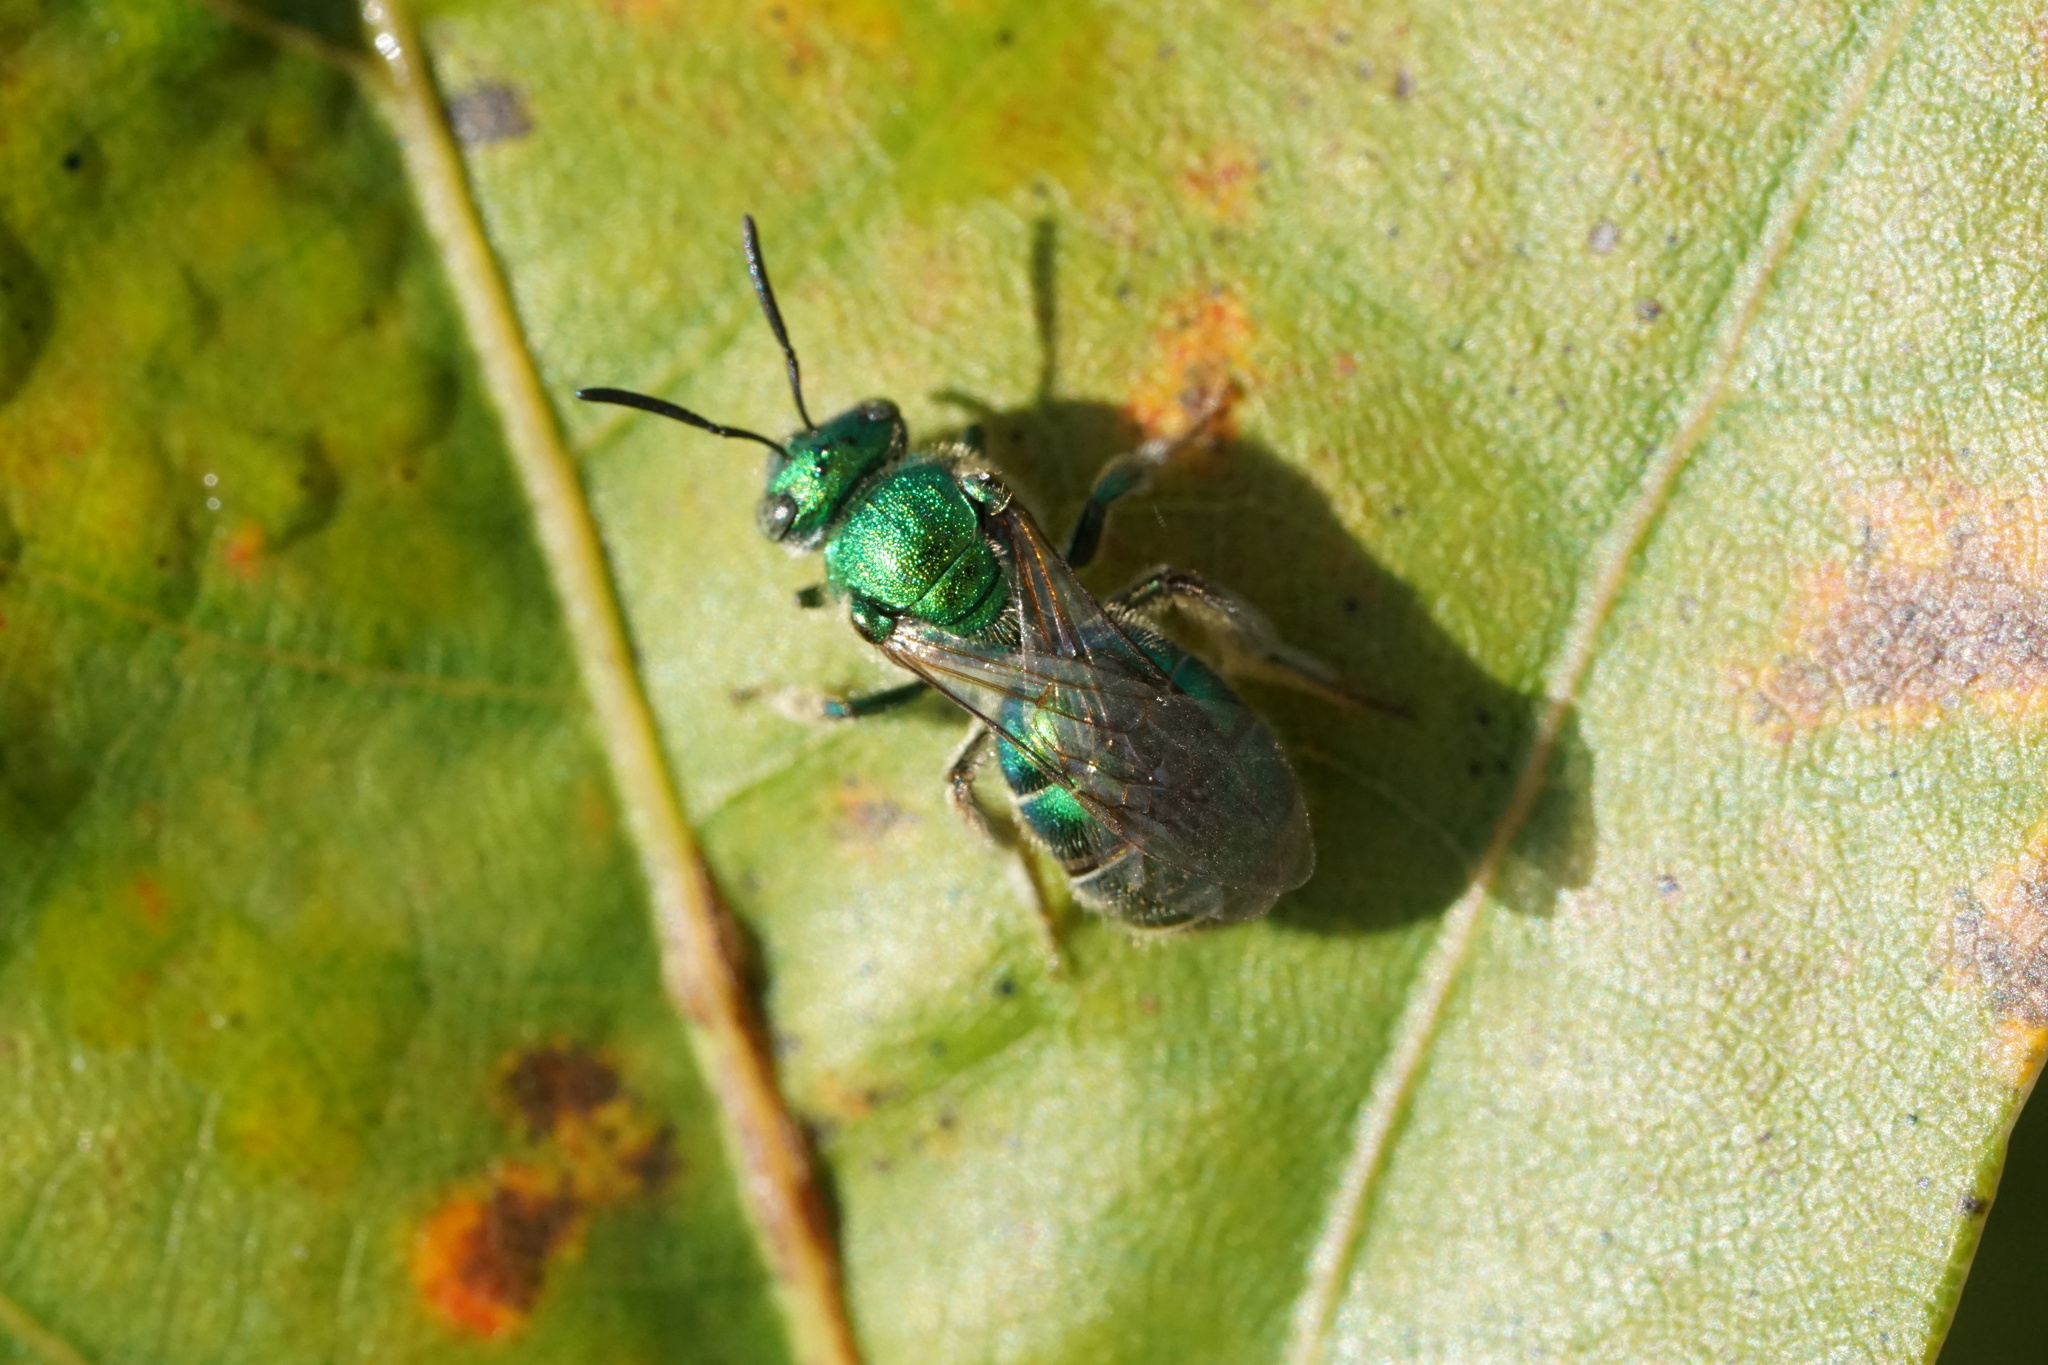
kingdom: Animalia
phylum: Arthropoda
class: Insecta
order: Hymenoptera
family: Halictidae
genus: Augochloropsis
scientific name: Augochloropsis viridula
